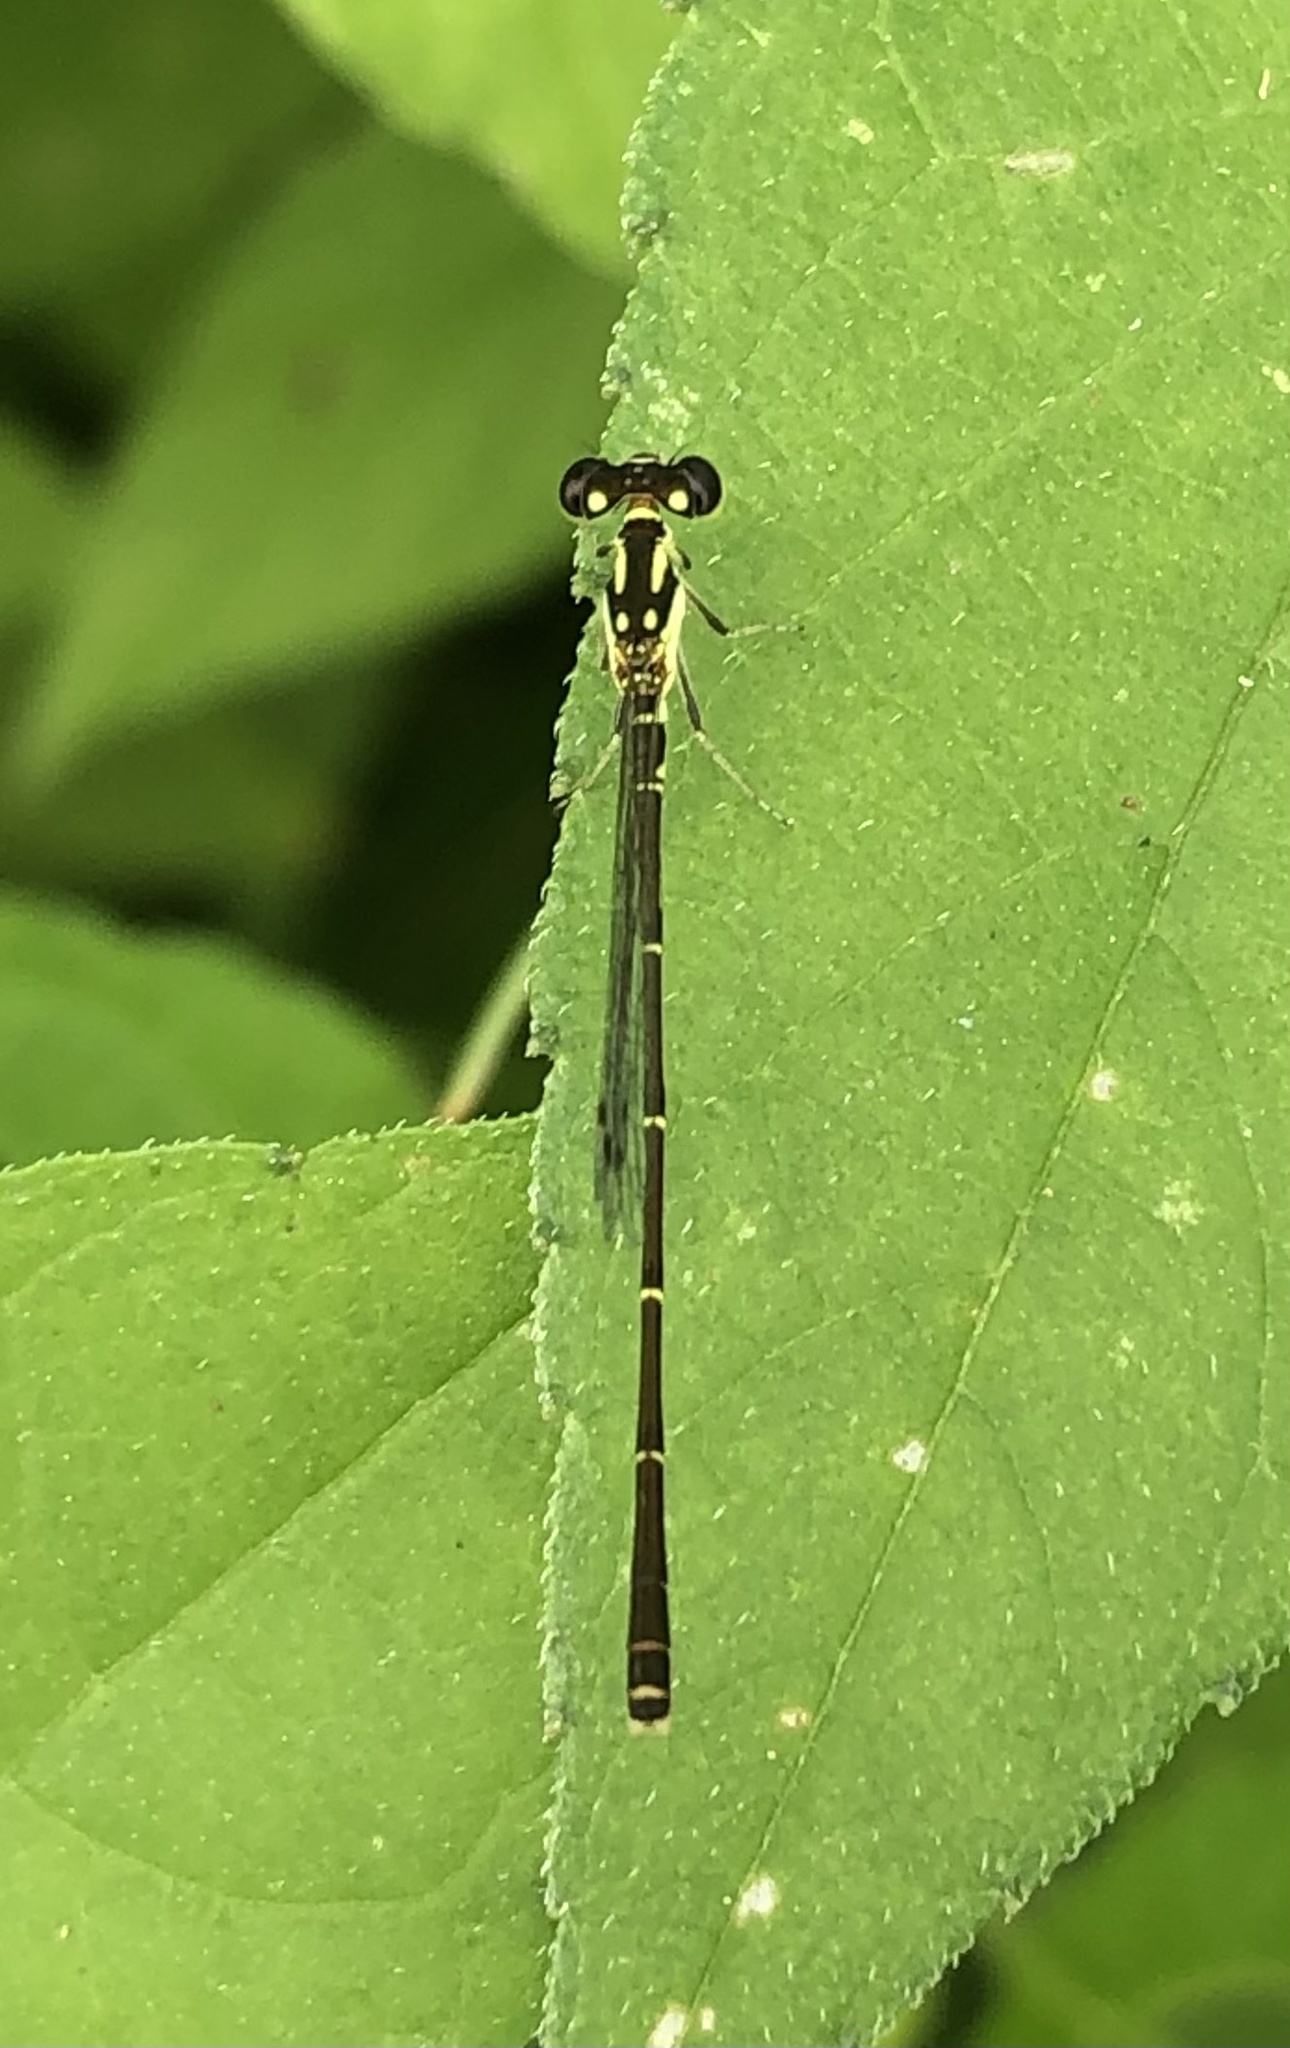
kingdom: Animalia
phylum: Arthropoda
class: Insecta
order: Odonata
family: Coenagrionidae
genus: Ischnura
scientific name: Ischnura posita
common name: Fragile forktail
